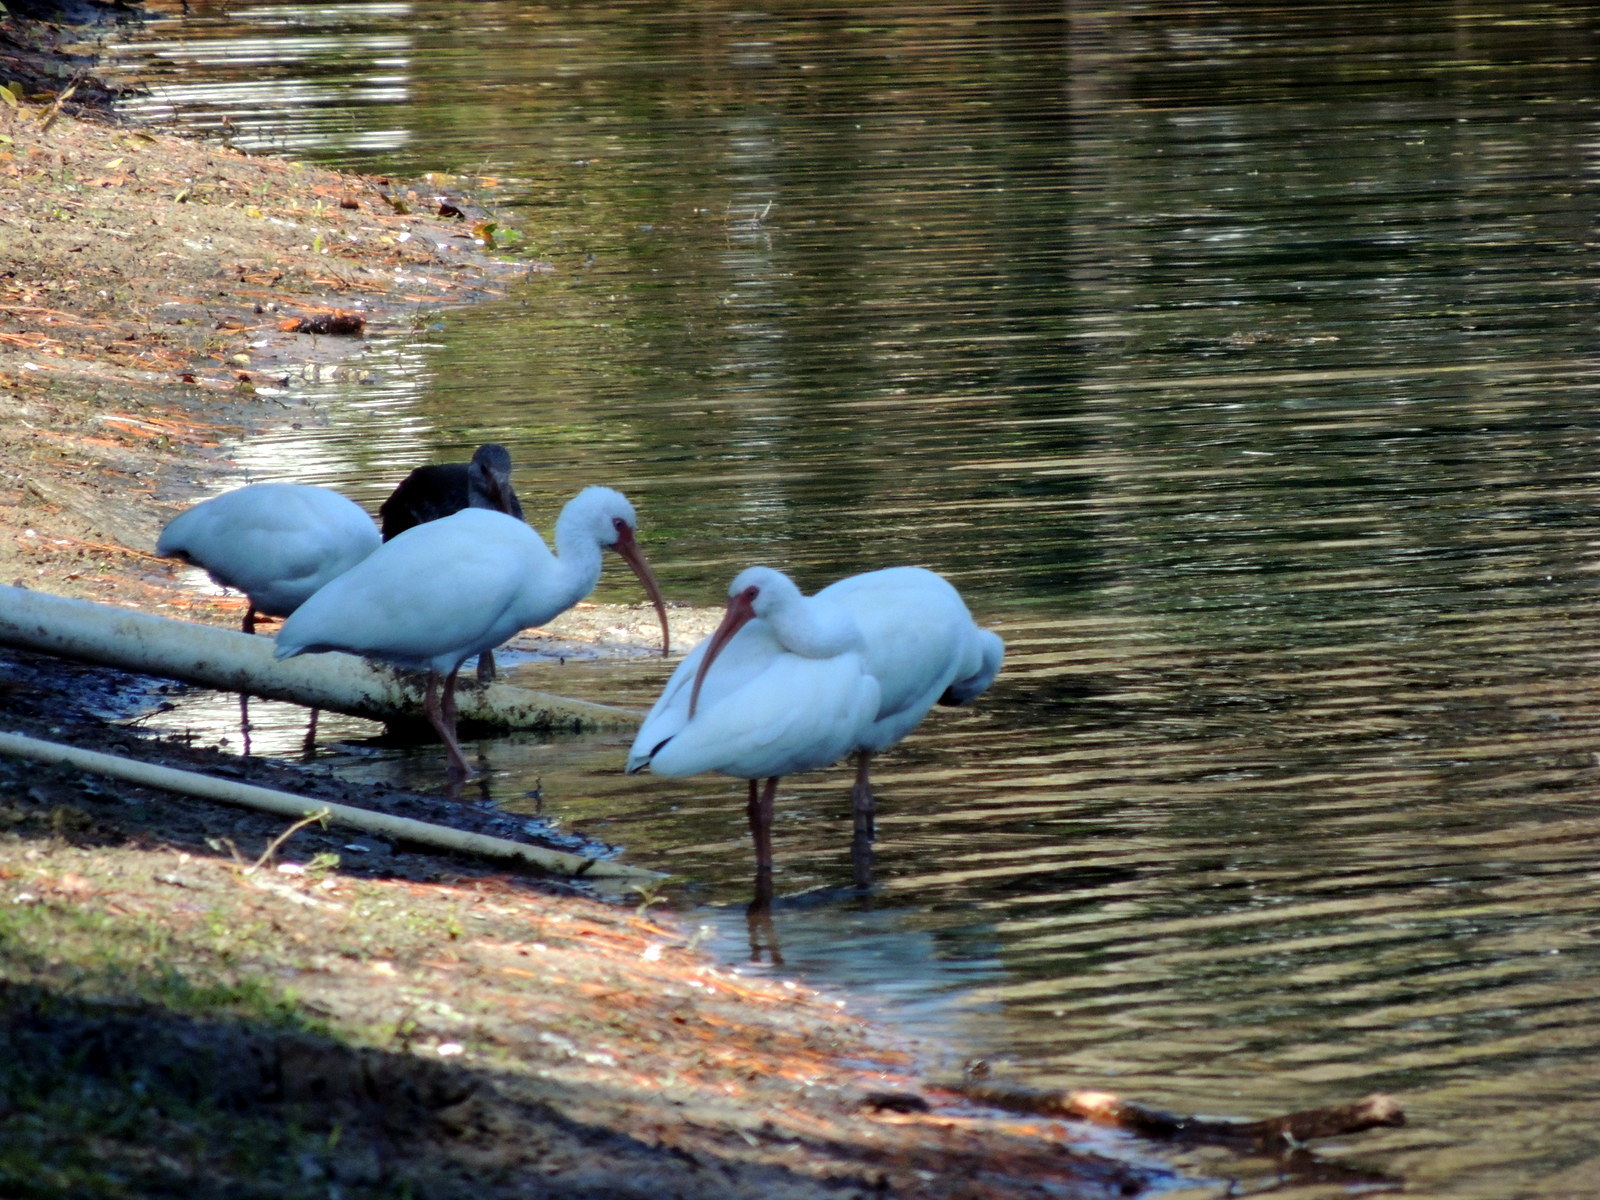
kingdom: Animalia
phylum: Chordata
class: Aves
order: Pelecaniformes
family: Threskiornithidae
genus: Eudocimus
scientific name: Eudocimus albus
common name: White ibis
